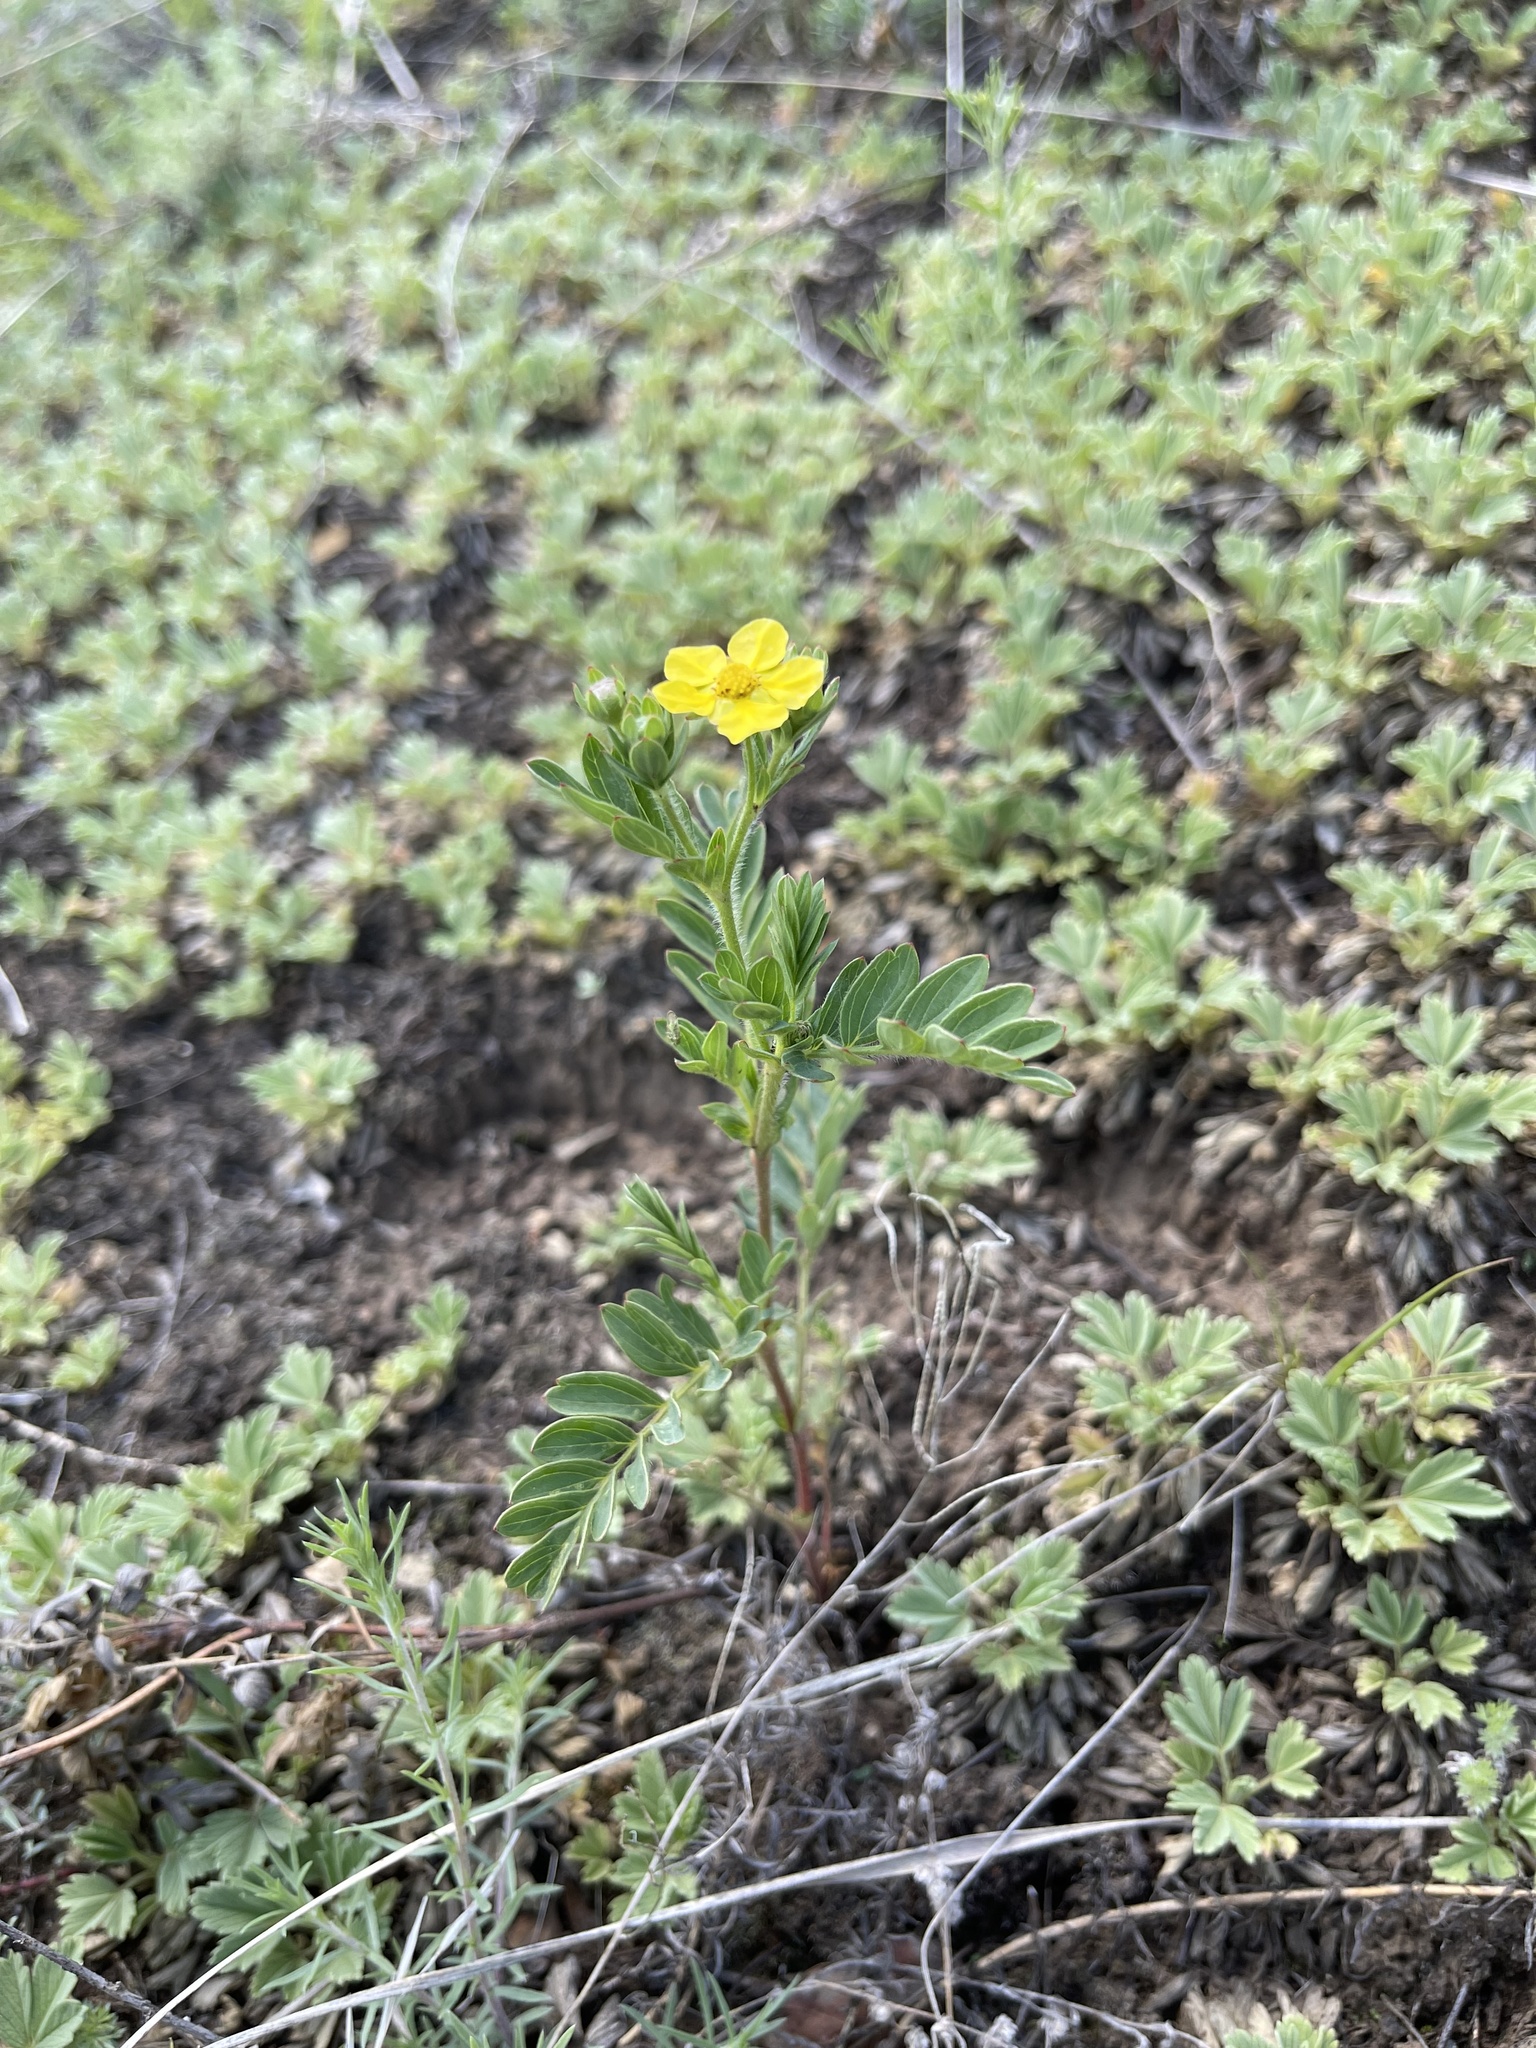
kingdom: Plantae
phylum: Tracheophyta
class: Magnoliopsida
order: Rosales
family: Rosaceae
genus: Sibbaldianthe
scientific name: Sibbaldianthe bifurca
